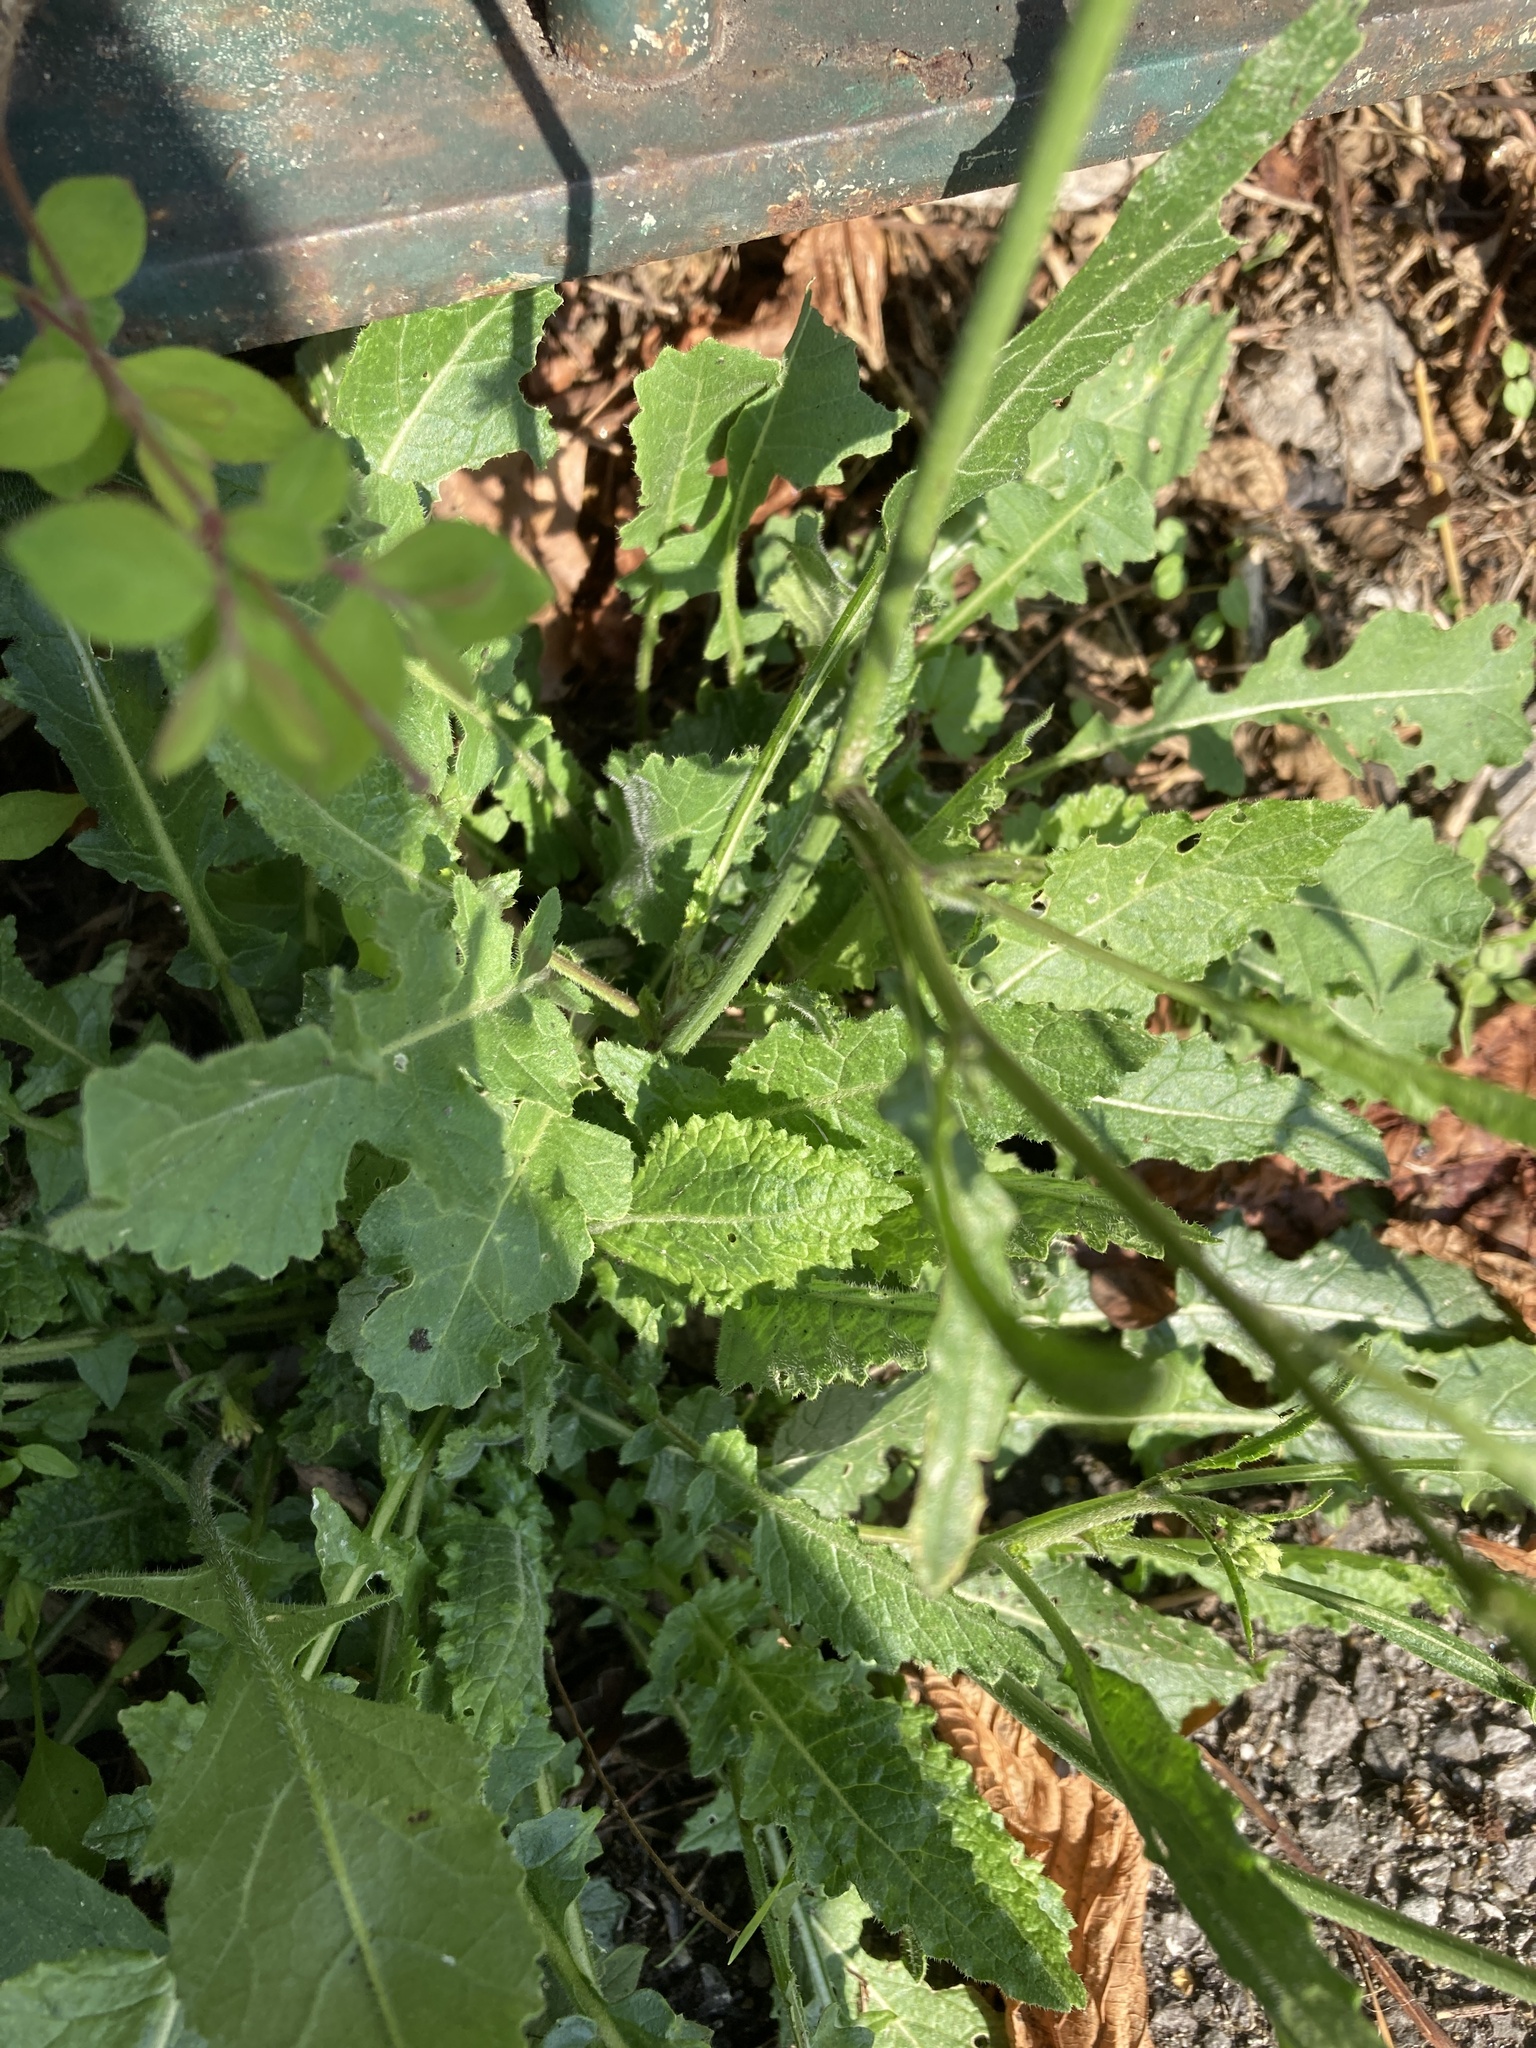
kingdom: Plantae
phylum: Tracheophyta
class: Magnoliopsida
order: Brassicales
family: Brassicaceae
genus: Hirschfeldia
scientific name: Hirschfeldia incana
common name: Hoary mustard
